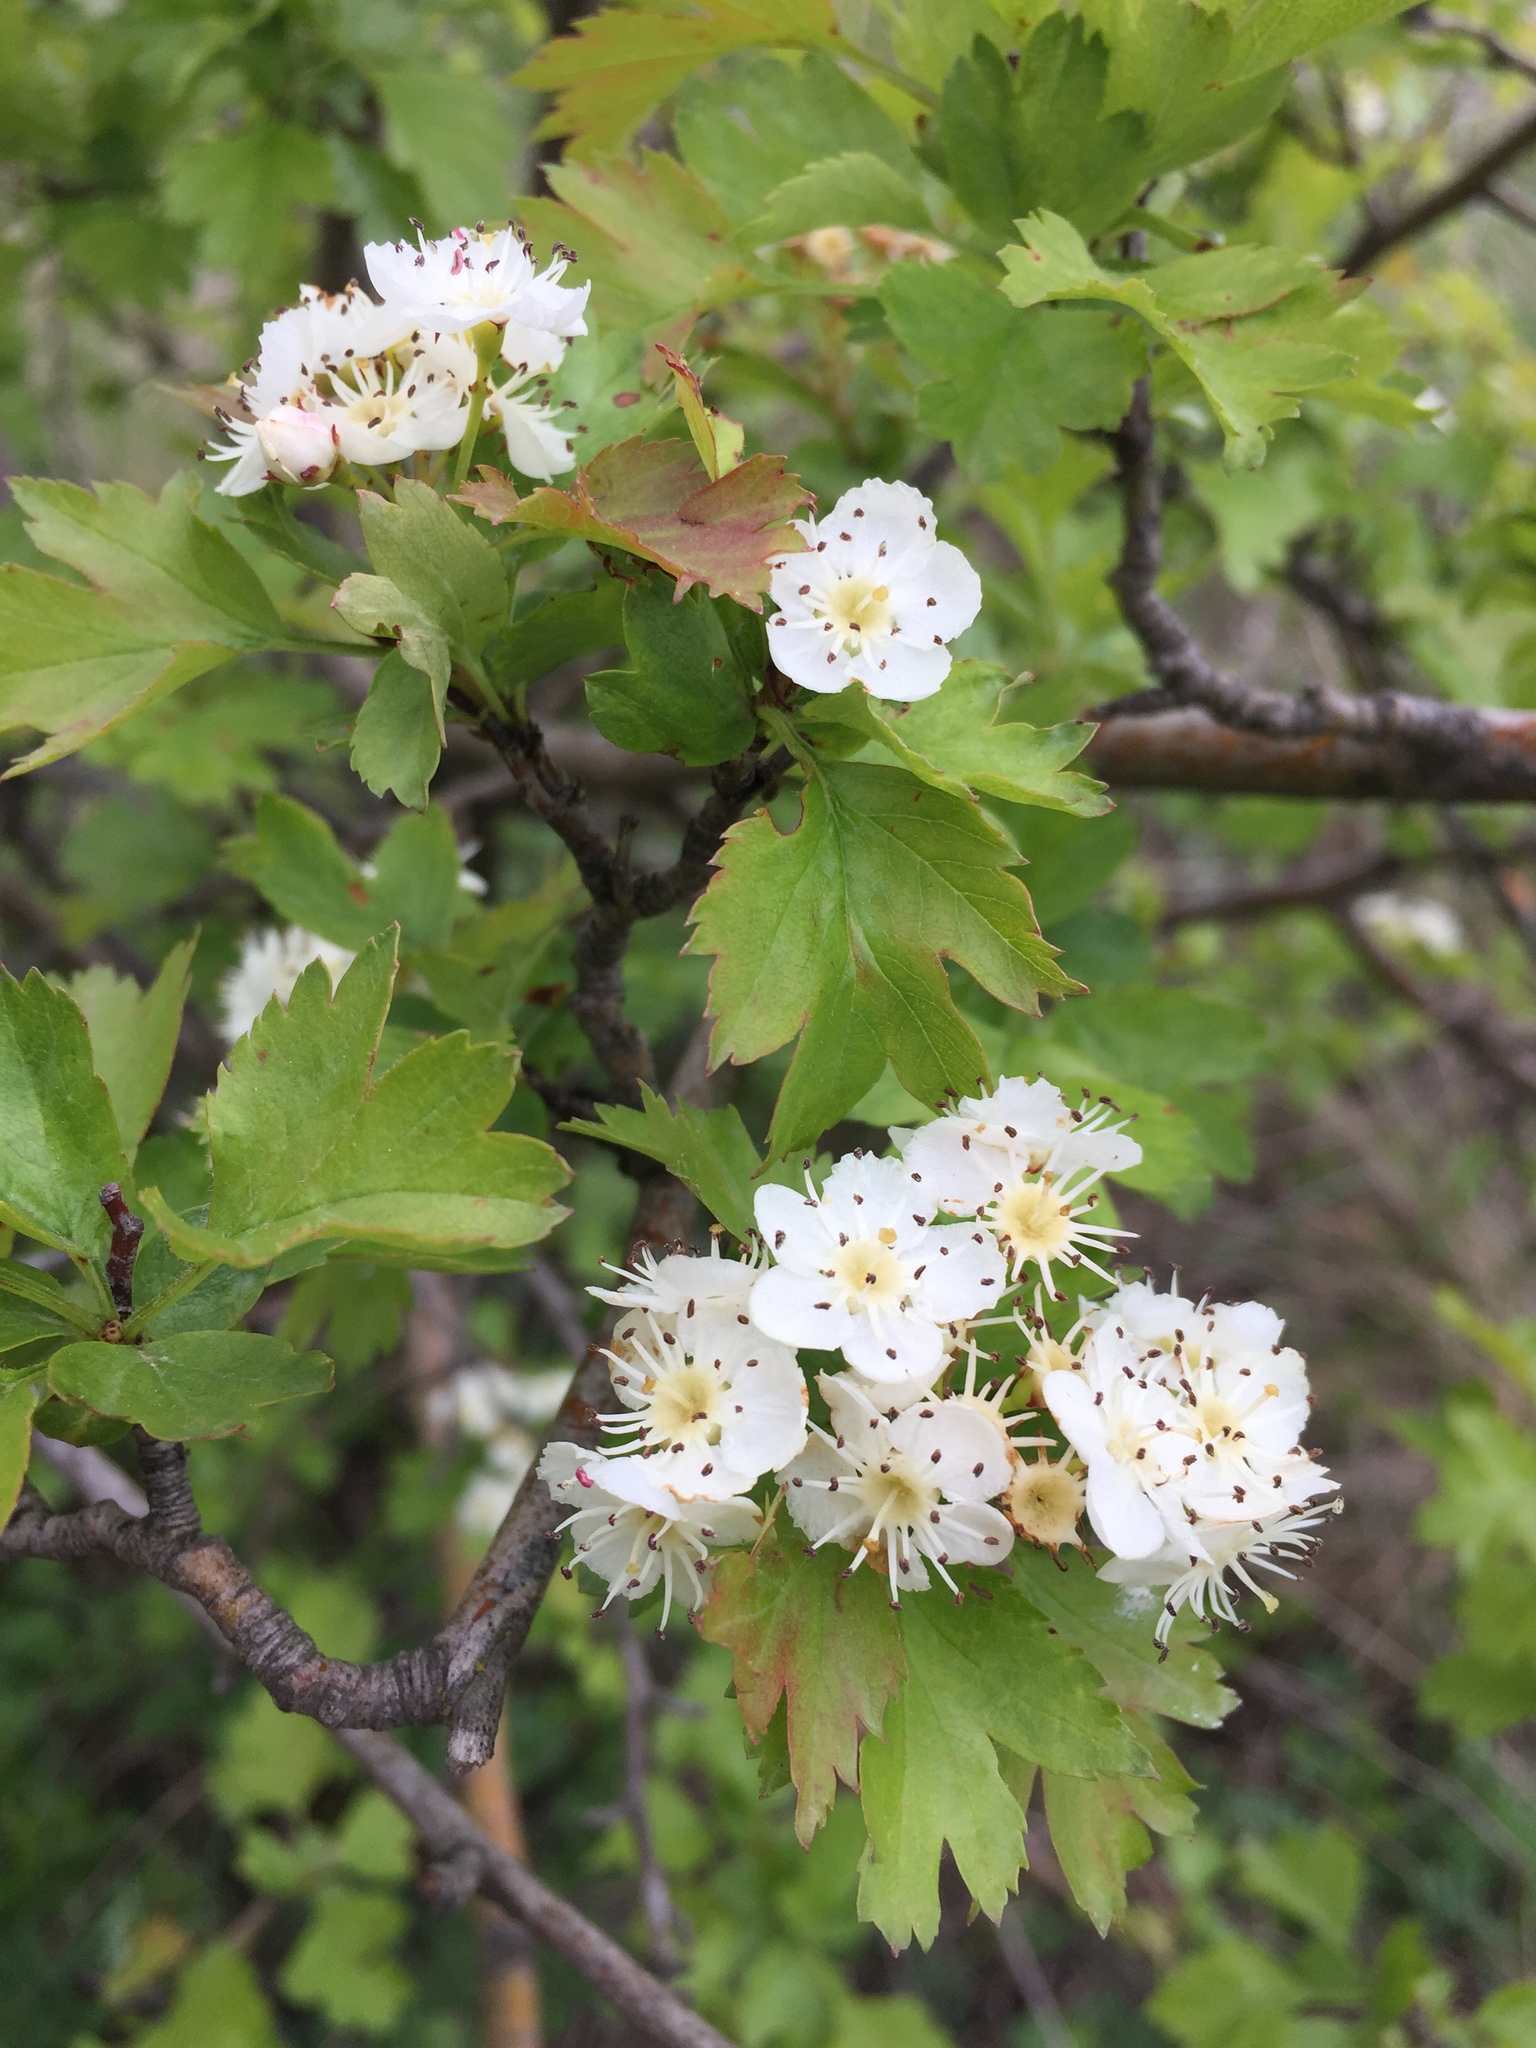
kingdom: Plantae
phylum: Tracheophyta
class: Magnoliopsida
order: Rosales
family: Rosaceae
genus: Crataegus
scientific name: Crataegus monogyna
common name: Hawthorn
